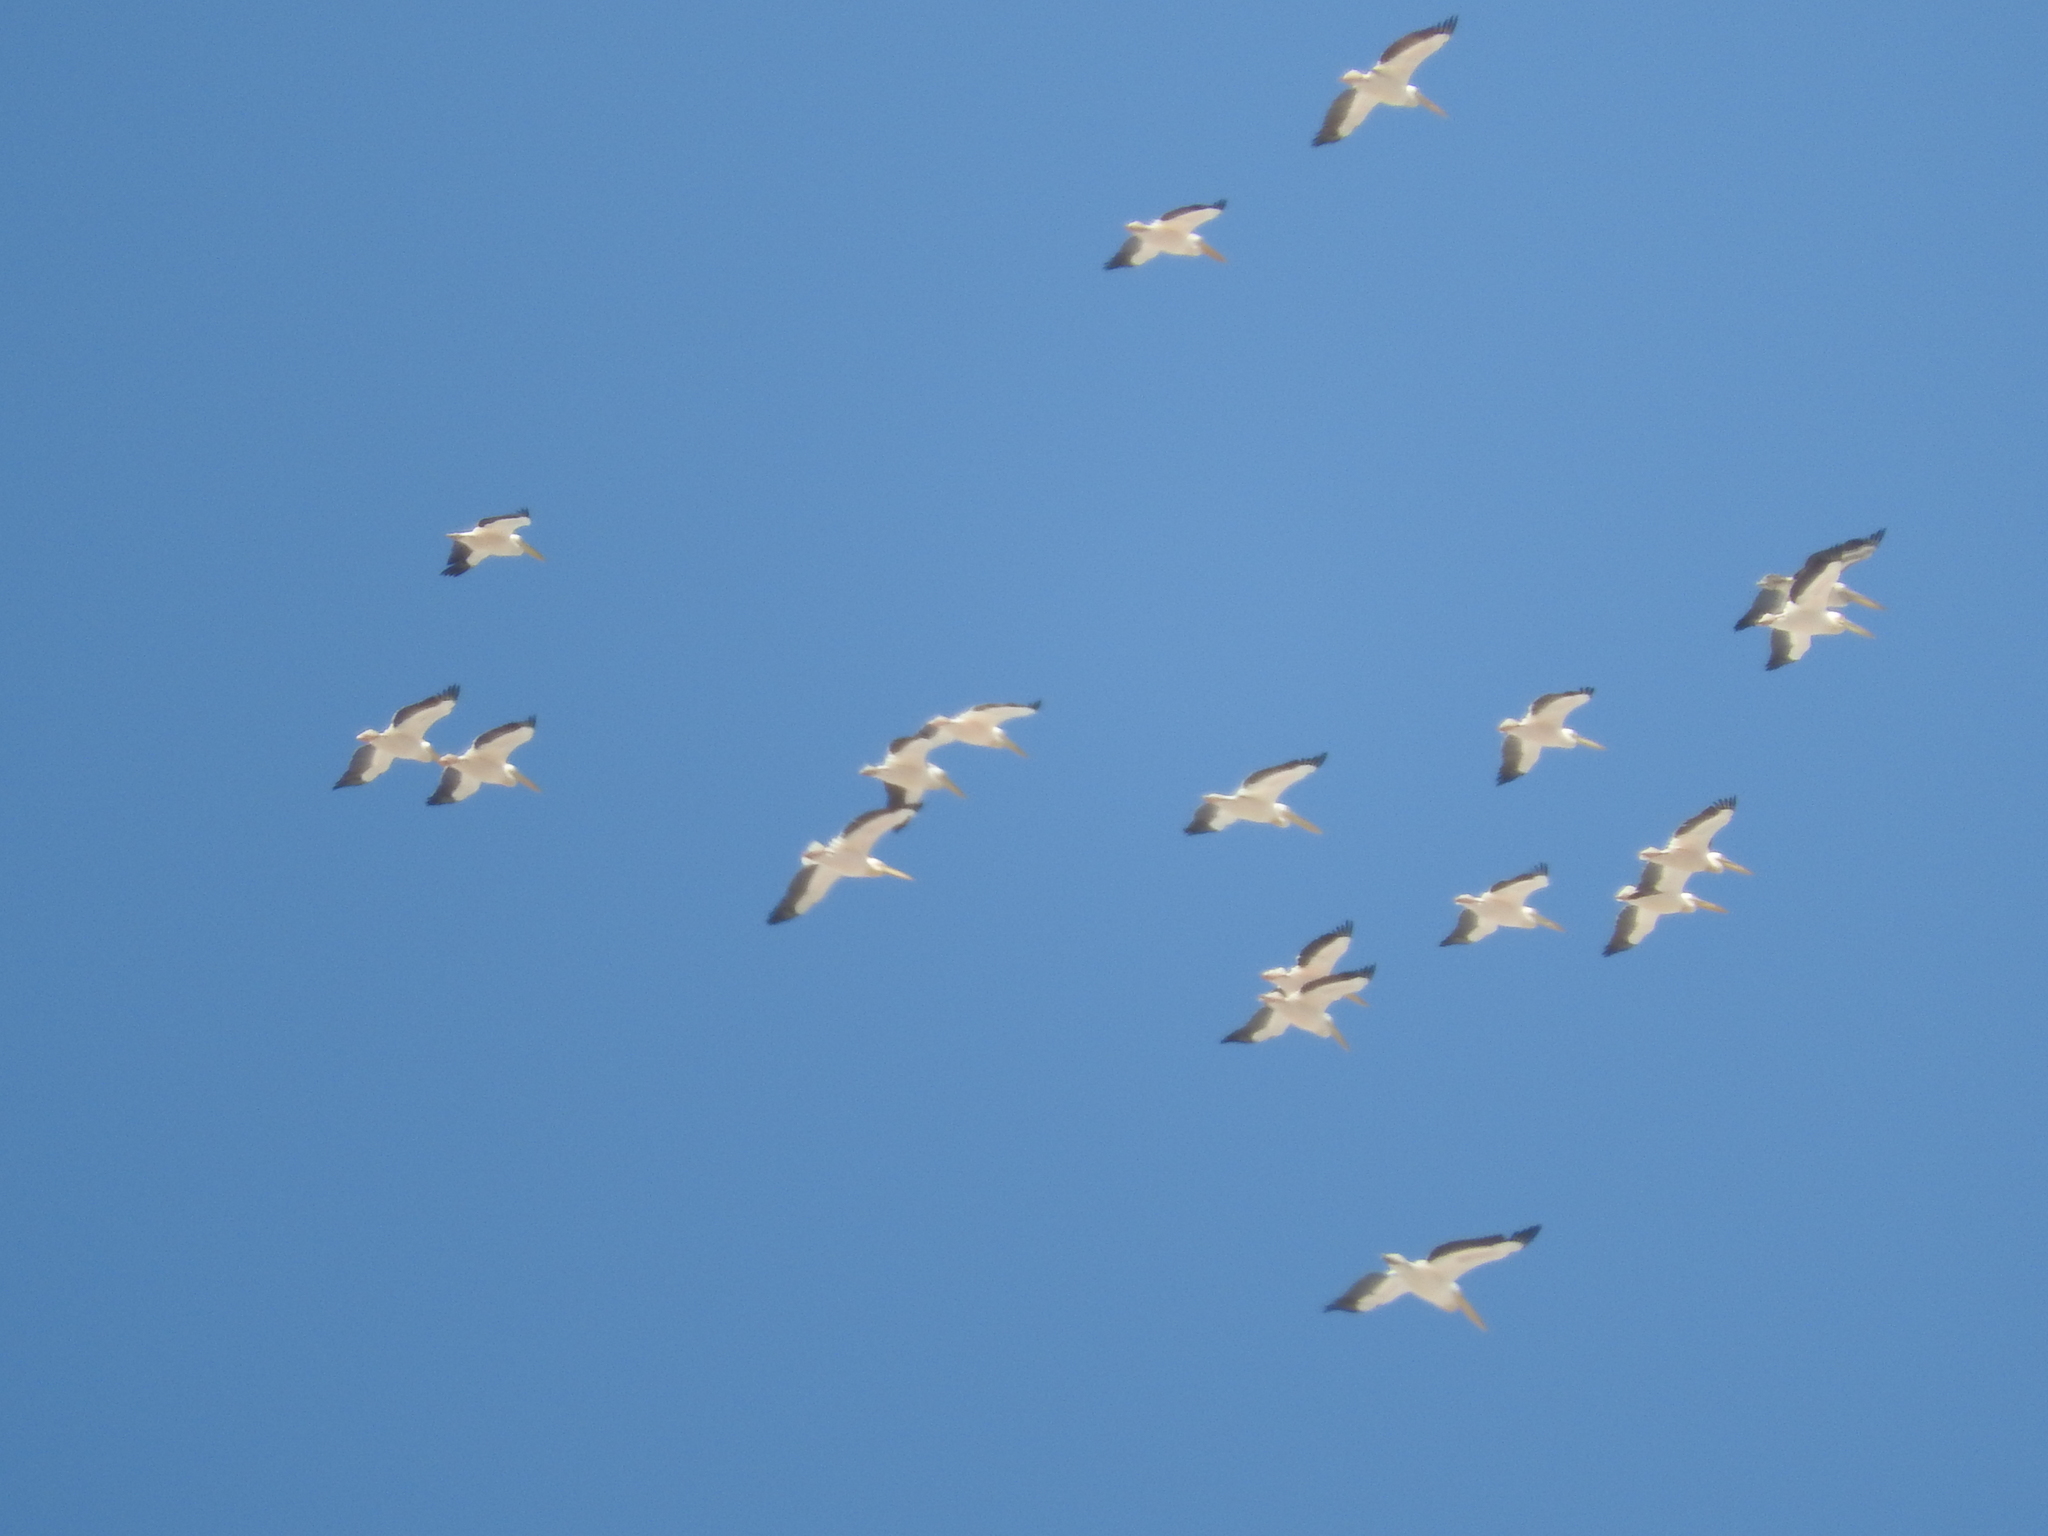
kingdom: Animalia
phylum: Chordata
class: Aves
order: Pelecaniformes
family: Pelecanidae
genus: Pelecanus
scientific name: Pelecanus onocrotalus
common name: Great white pelican
